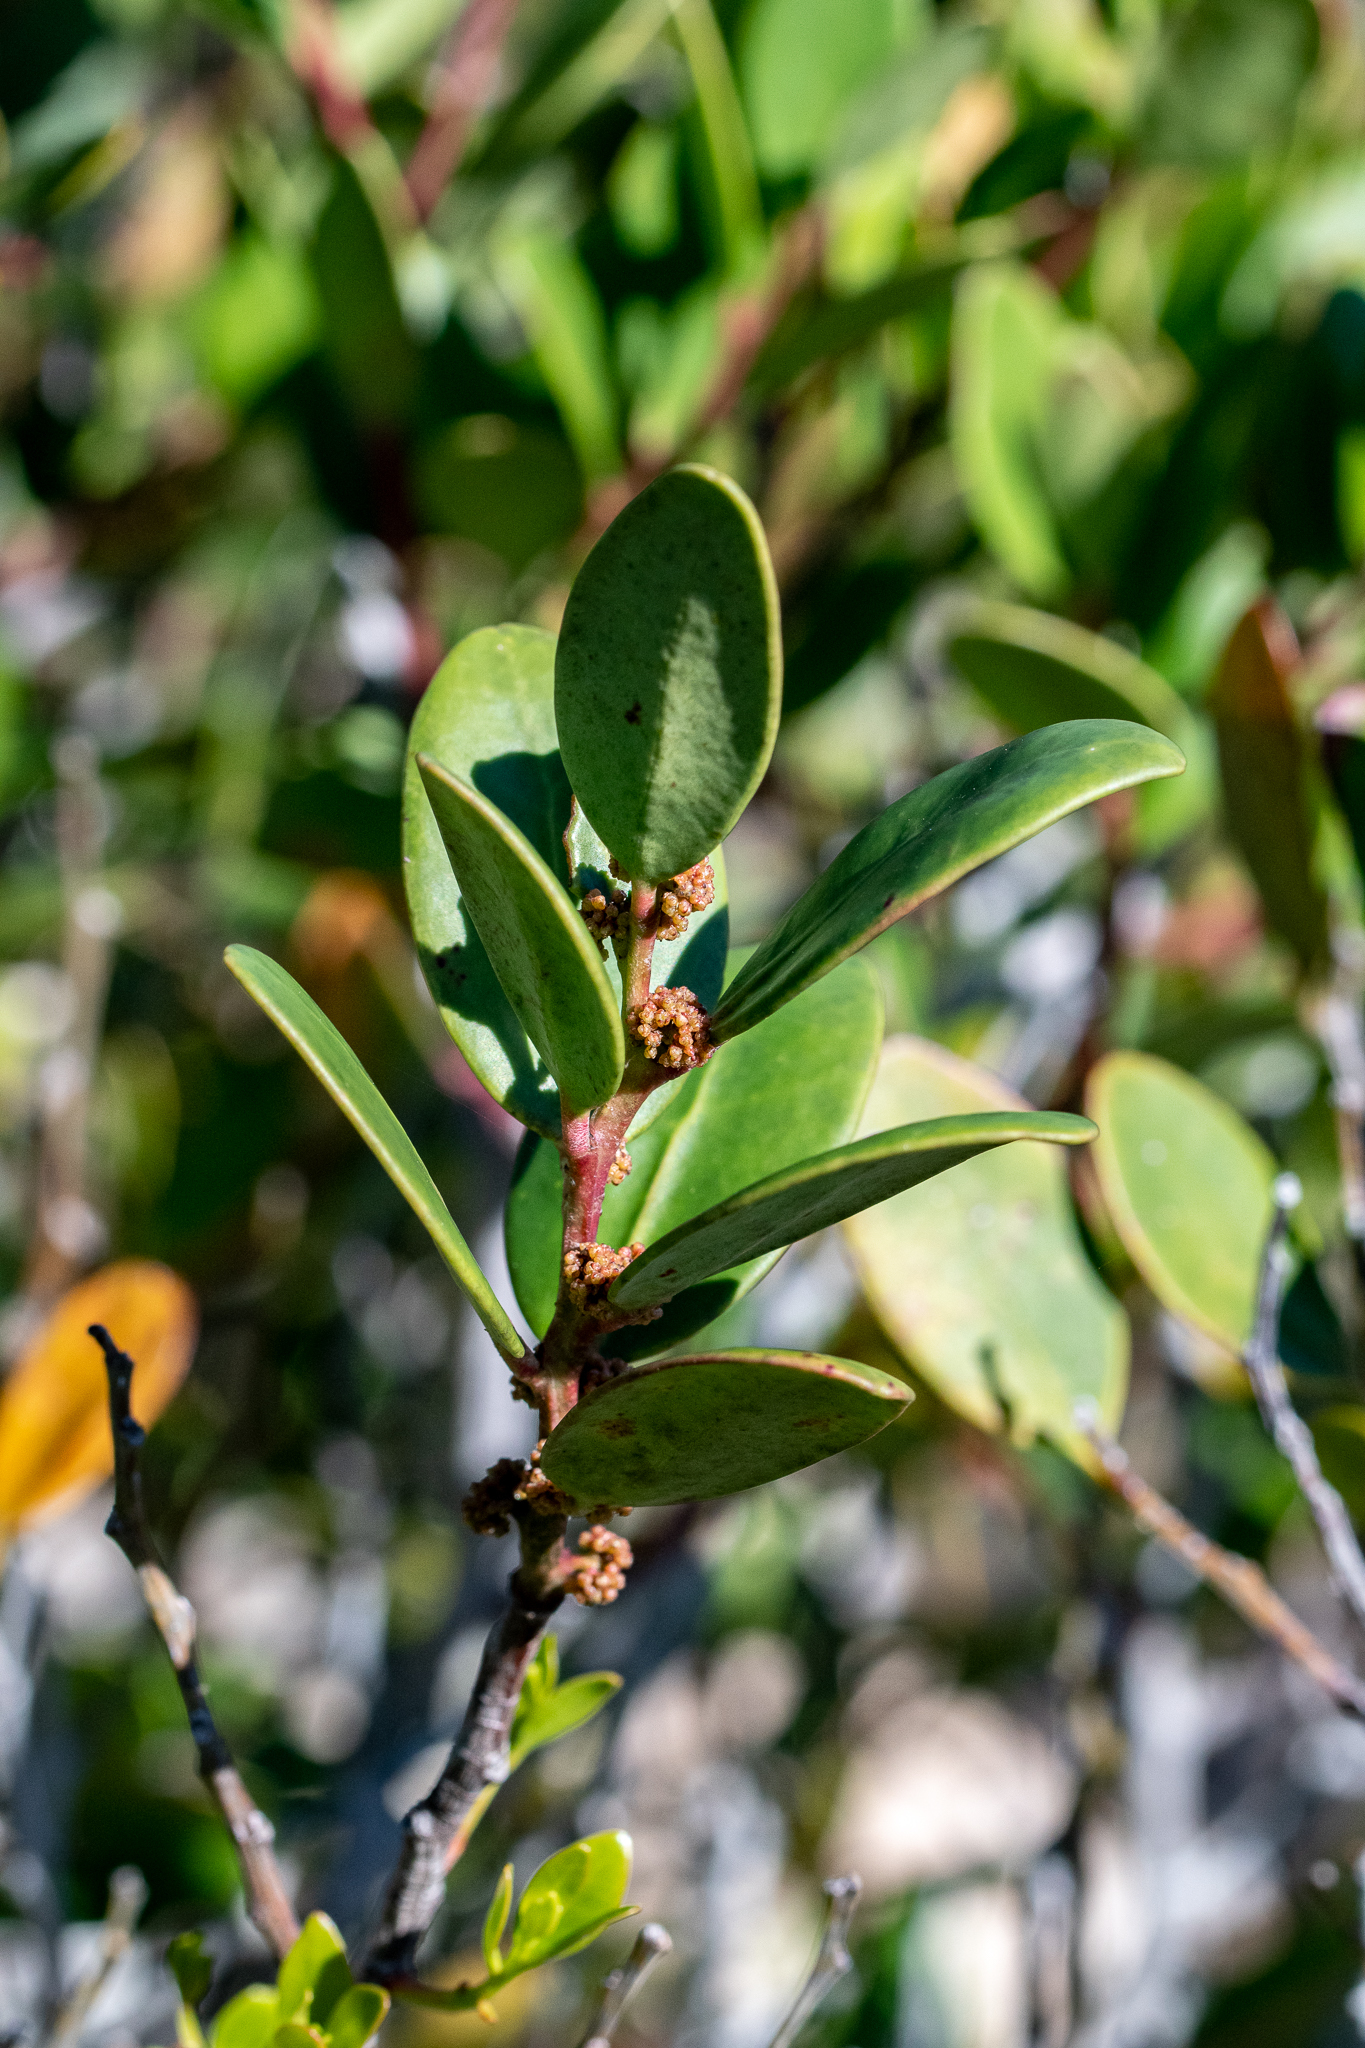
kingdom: Plantae
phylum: Tracheophyta
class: Magnoliopsida
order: Ericales
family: Primulaceae
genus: Myrsine
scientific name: Myrsine africana
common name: African-boxwood
